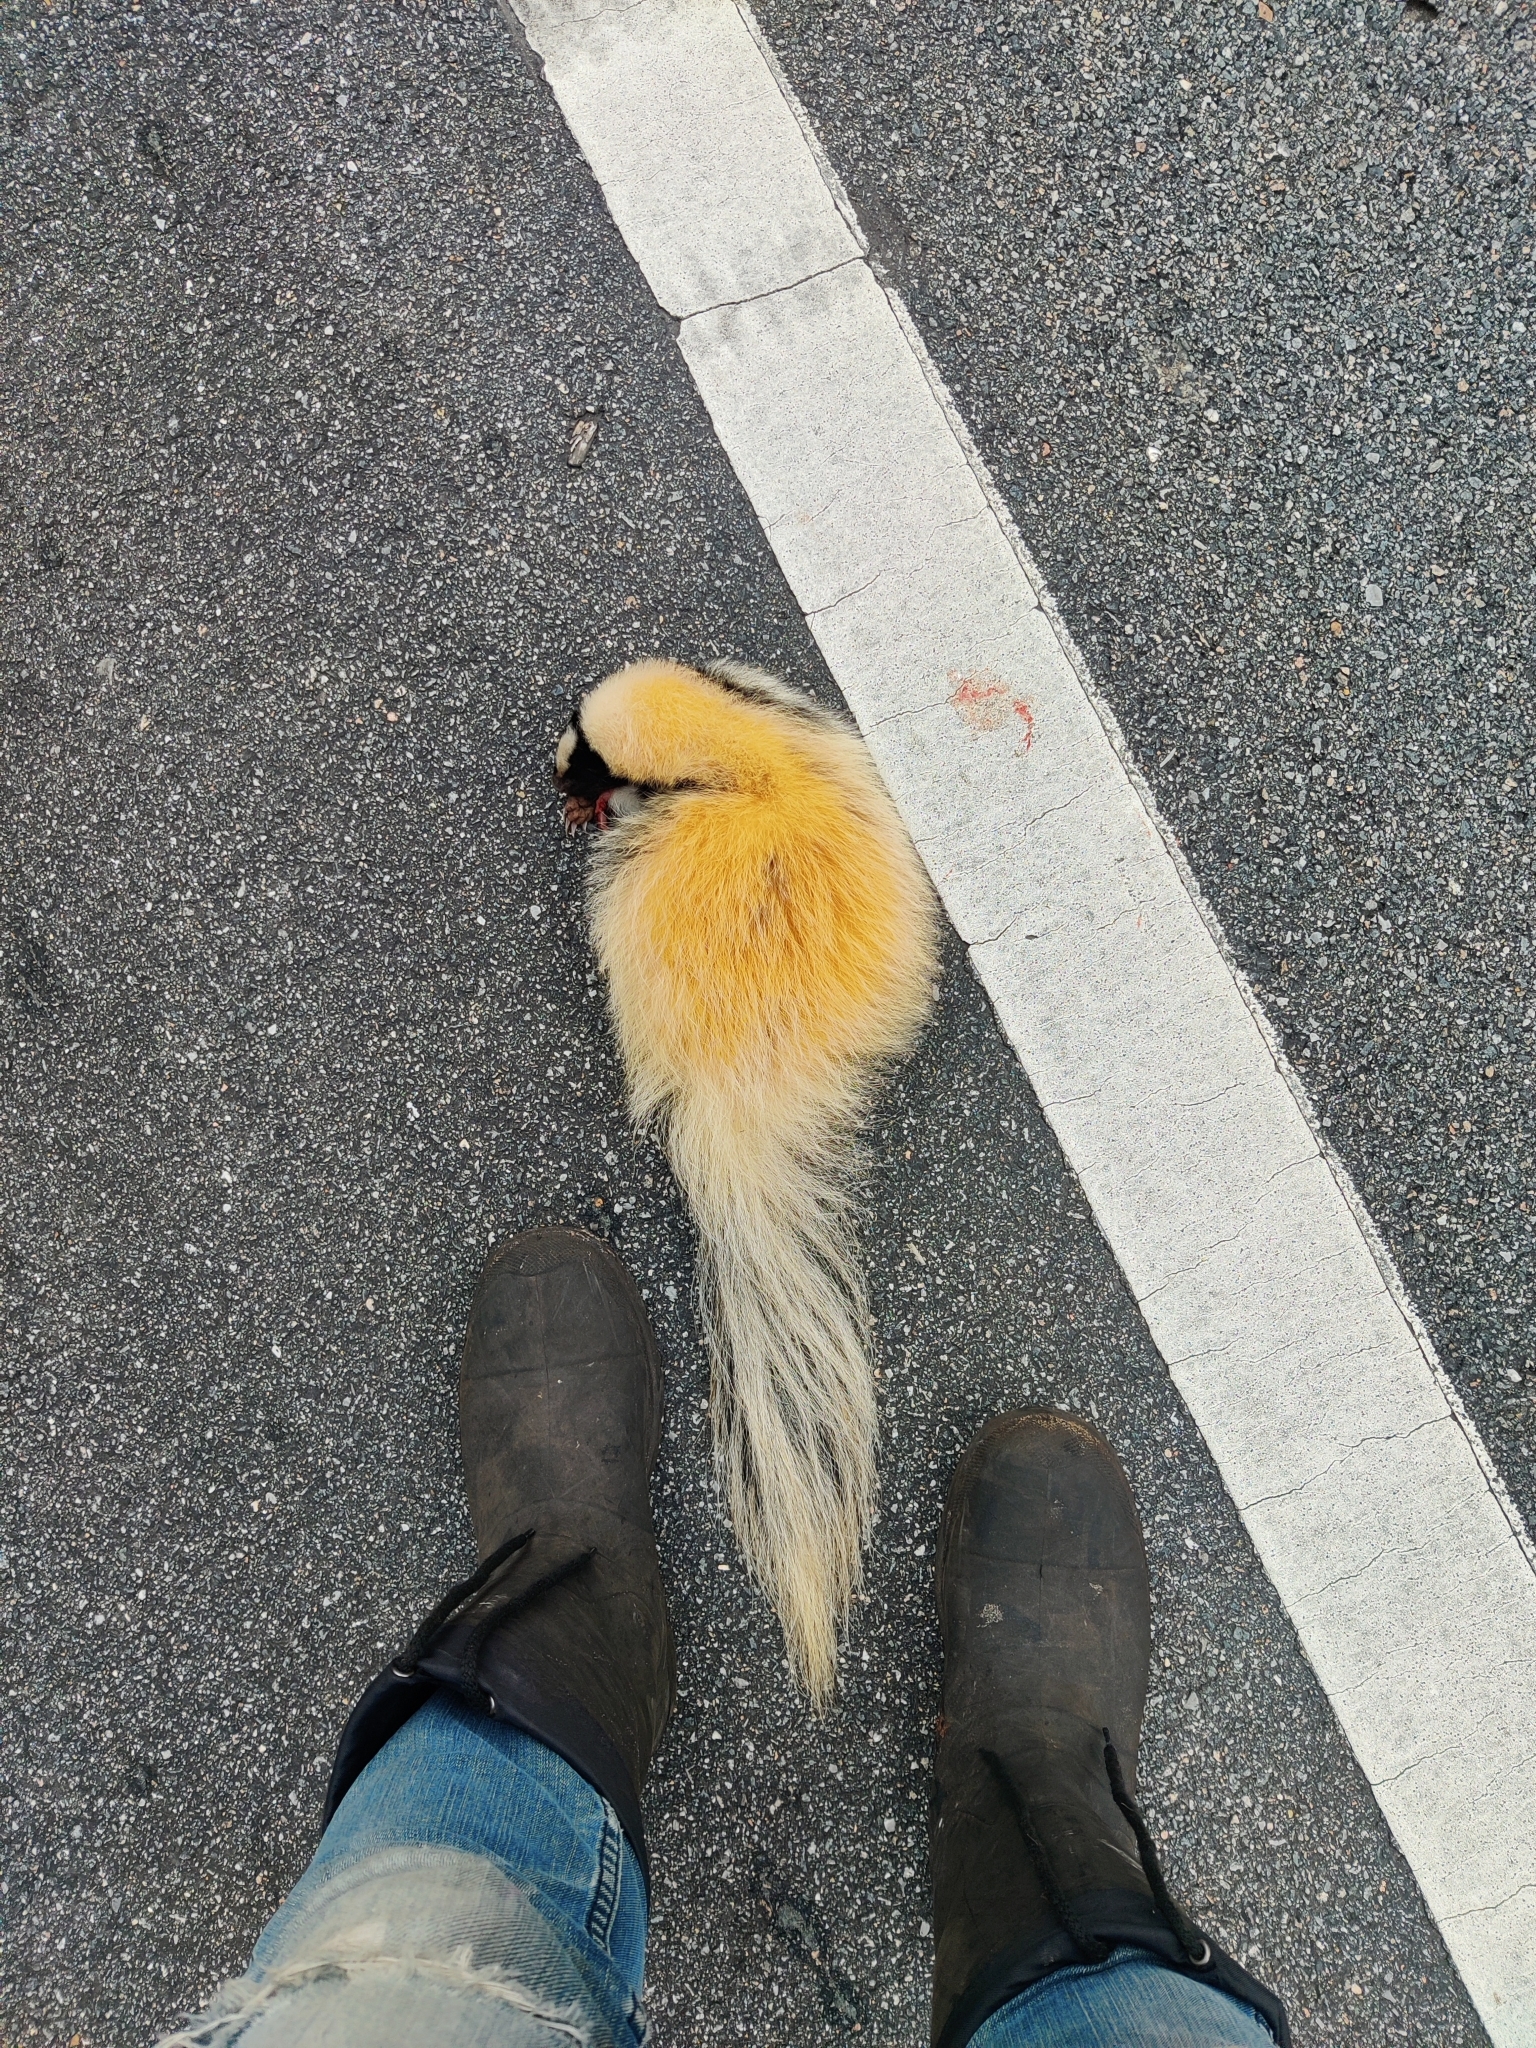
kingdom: Animalia
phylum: Chordata
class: Mammalia
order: Carnivora
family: Mephitidae
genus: Mephitis
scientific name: Mephitis mephitis
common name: Striped skunk
